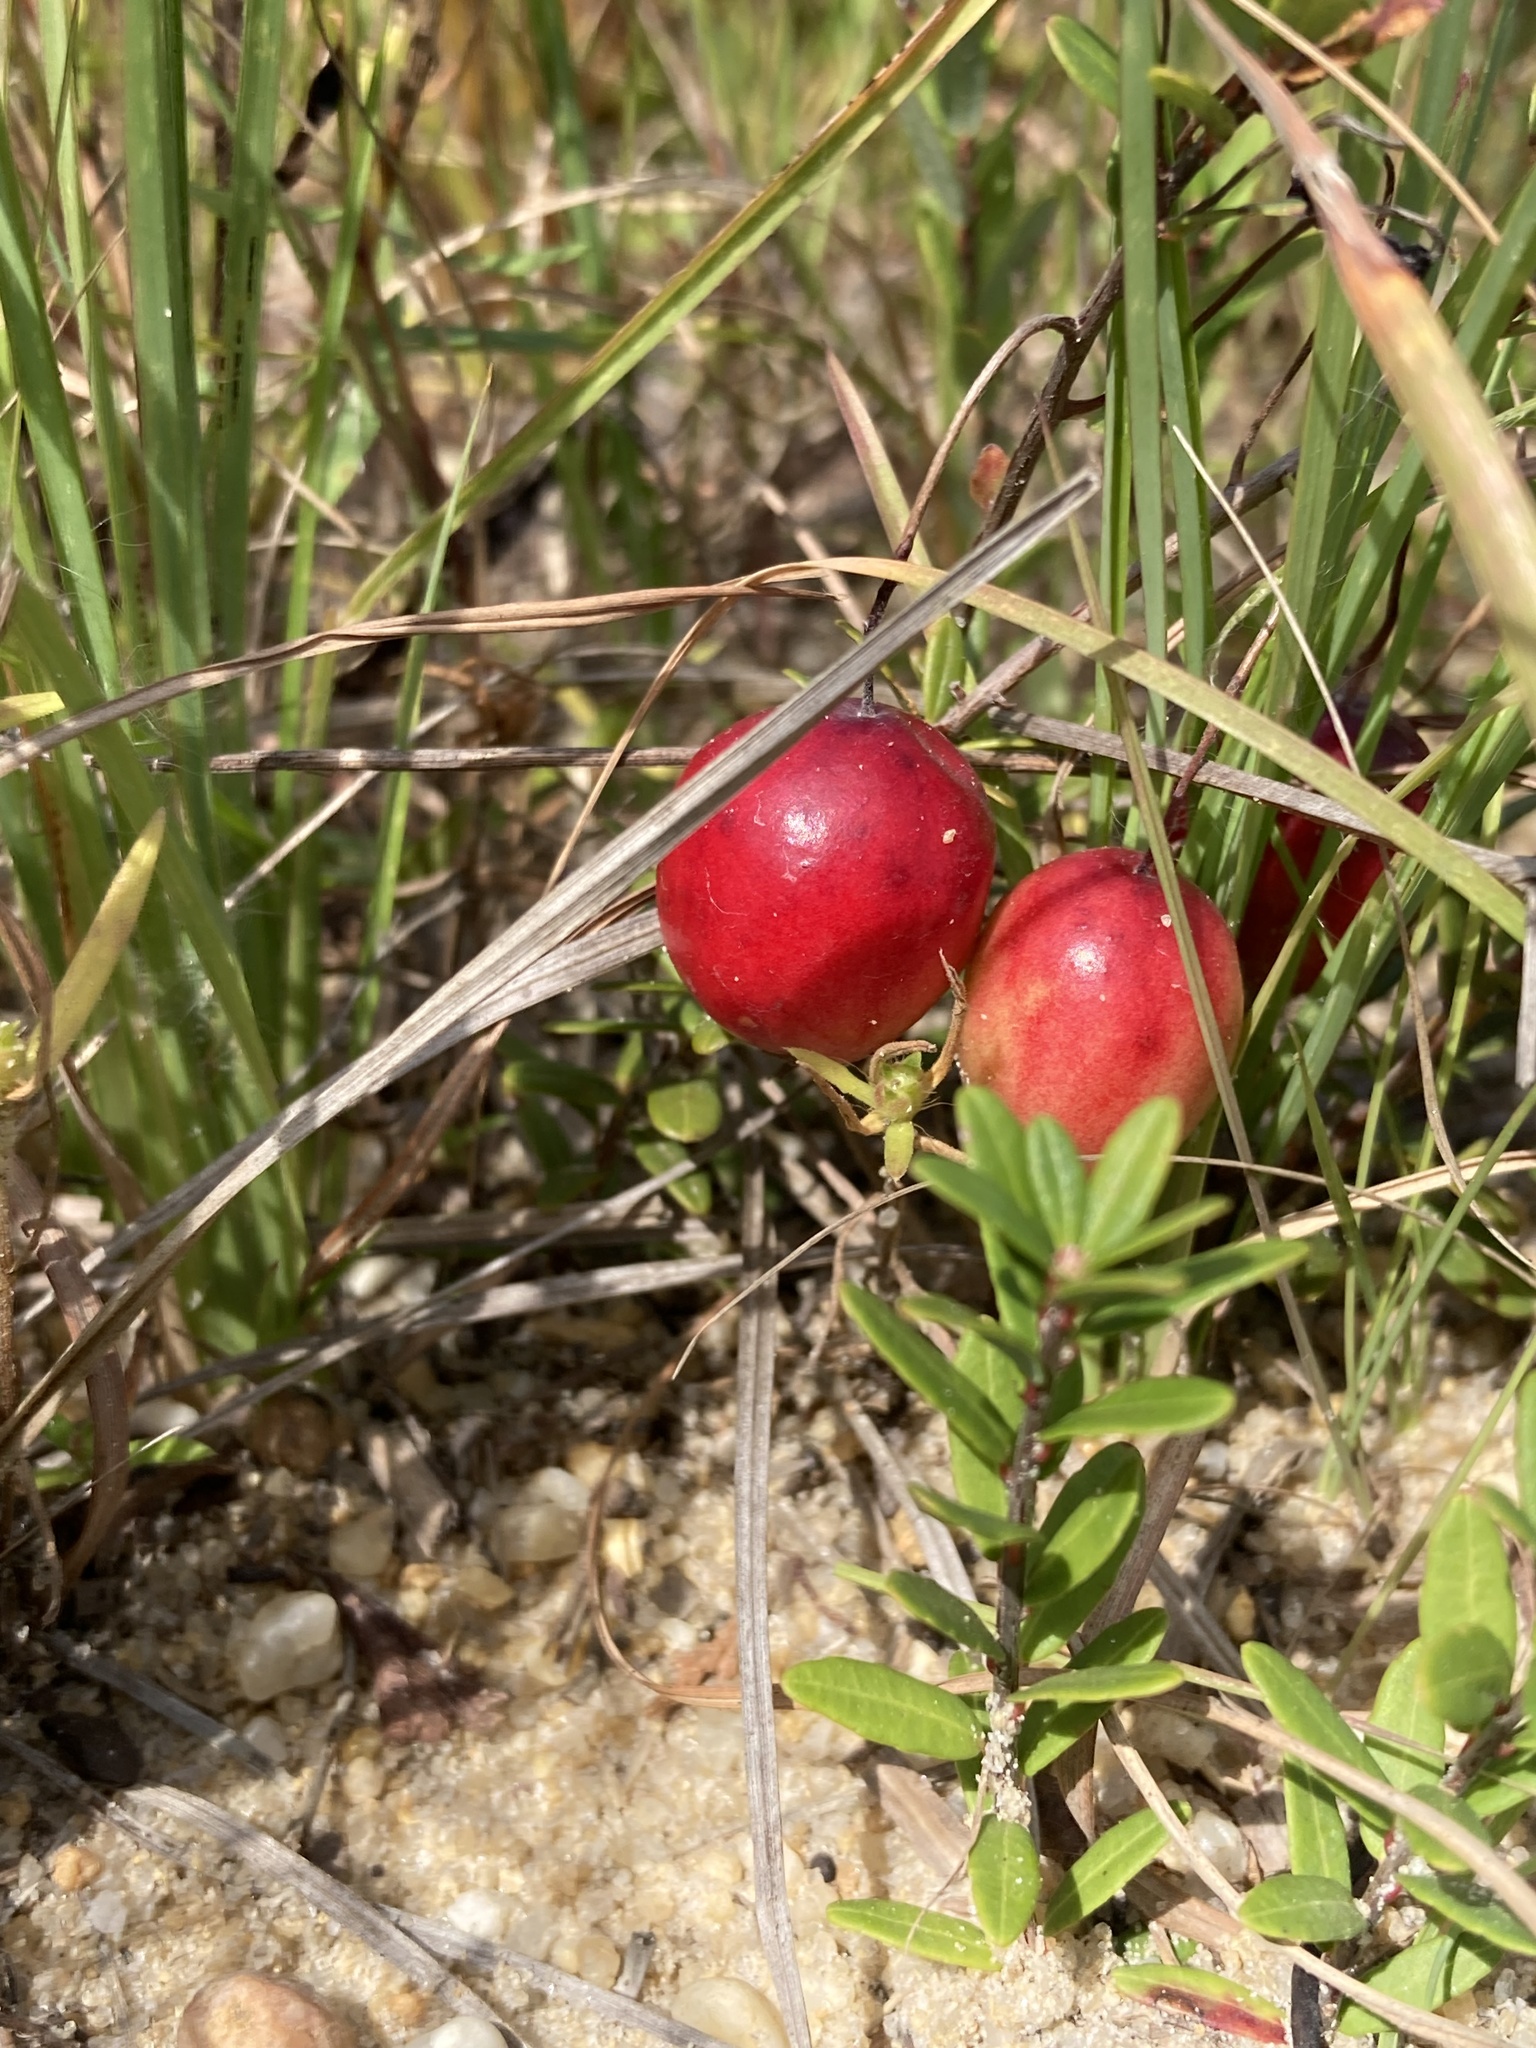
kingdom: Plantae
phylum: Tracheophyta
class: Magnoliopsida
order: Ericales
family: Ericaceae
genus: Vaccinium
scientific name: Vaccinium macrocarpon
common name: American cranberry
